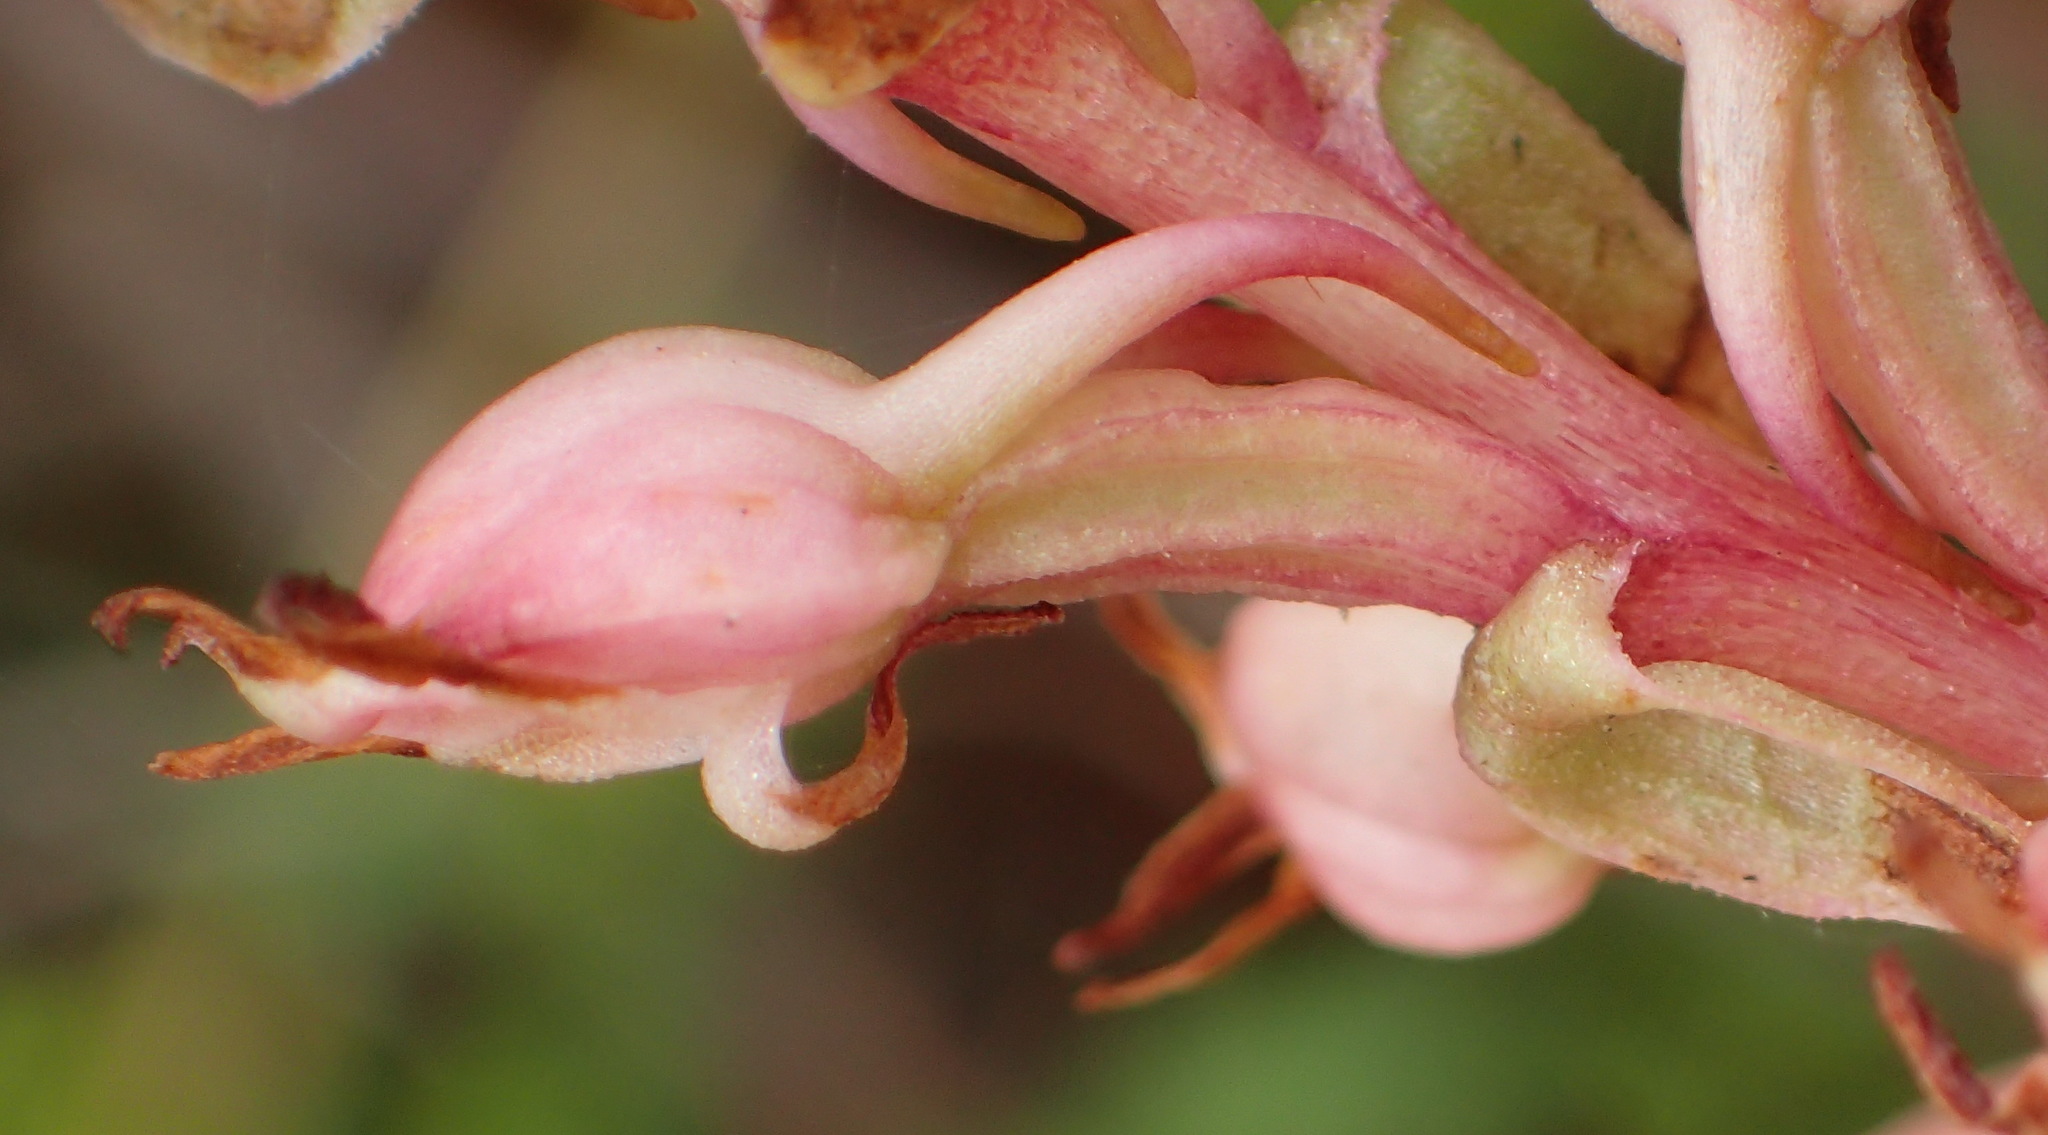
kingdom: Plantae
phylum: Tracheophyta
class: Liliopsida
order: Asparagales
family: Orchidaceae
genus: Satyrium
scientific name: Satyrium ligulatum
